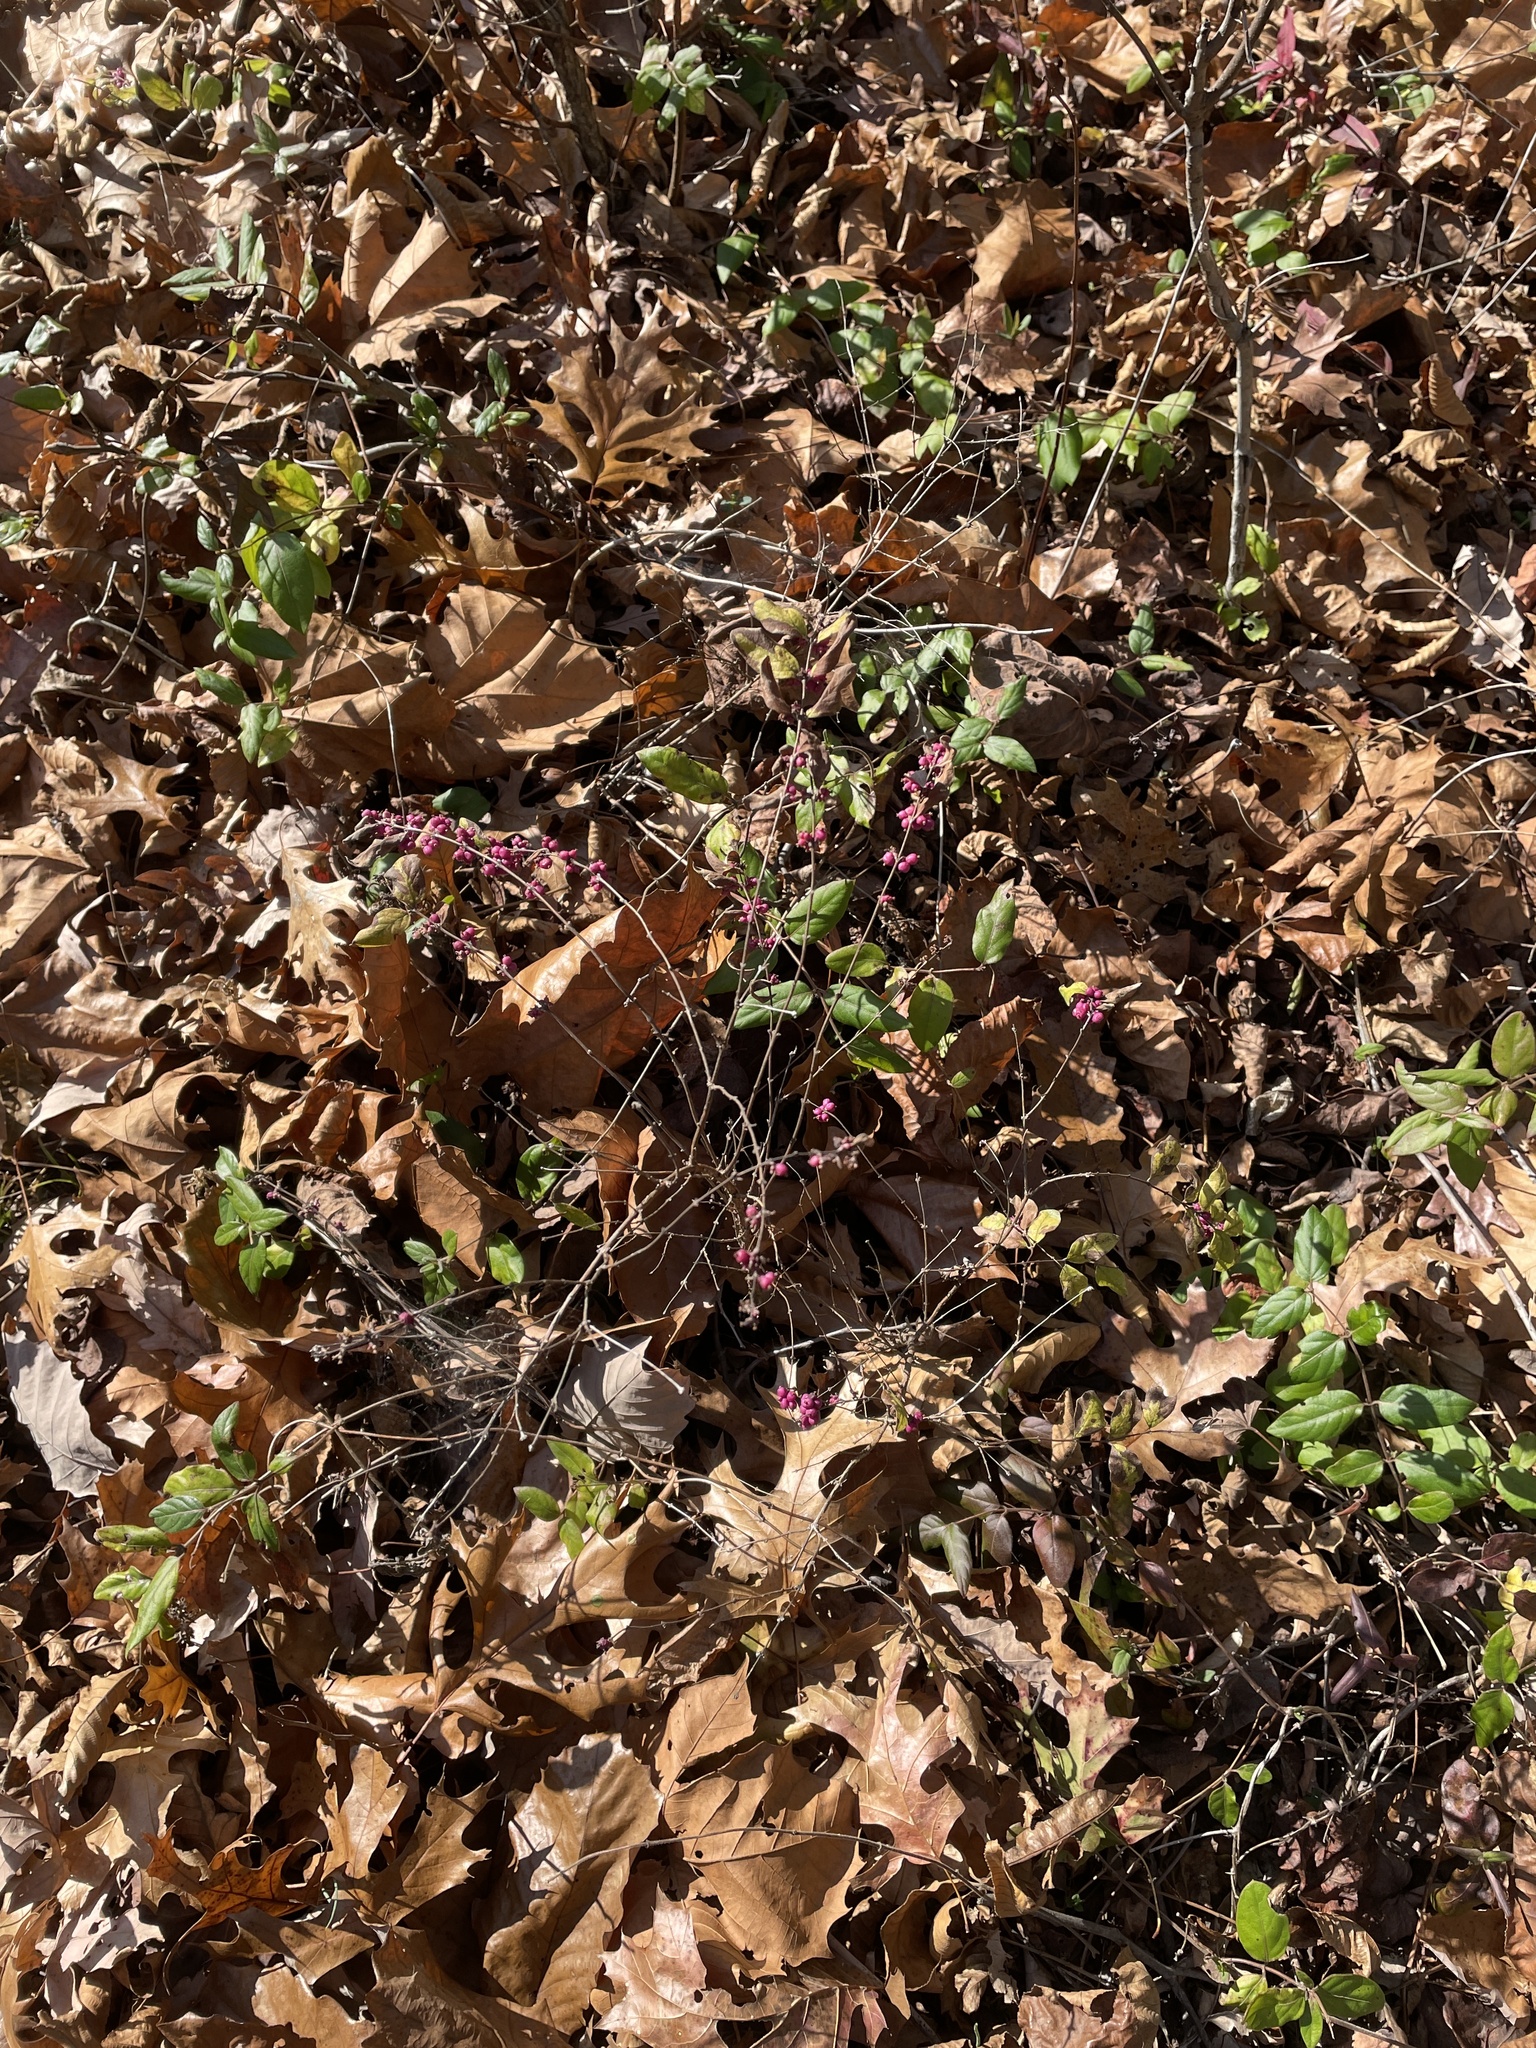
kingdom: Plantae
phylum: Tracheophyta
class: Magnoliopsida
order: Dipsacales
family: Caprifoliaceae
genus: Symphoricarpos
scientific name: Symphoricarpos orbiculatus
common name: Coralberry
